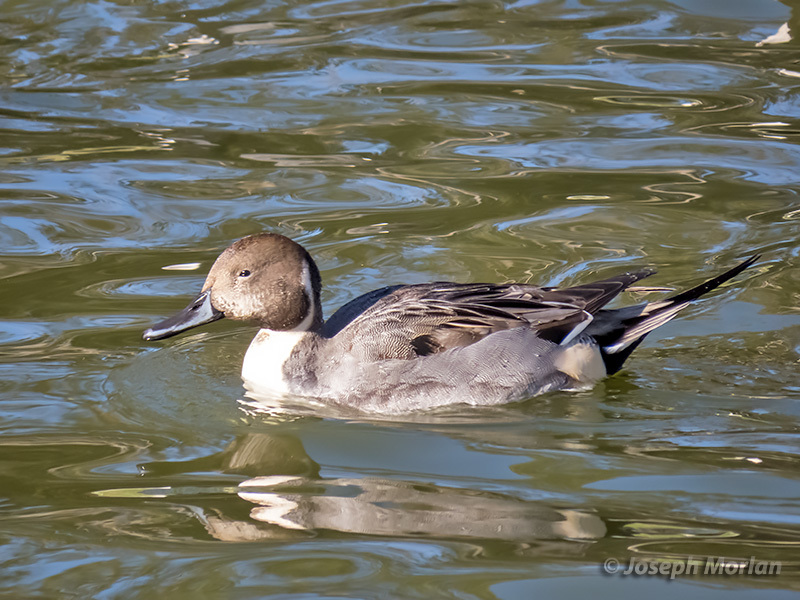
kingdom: Animalia
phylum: Chordata
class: Aves
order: Anseriformes
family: Anatidae
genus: Anas
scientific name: Anas acuta
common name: Northern pintail
